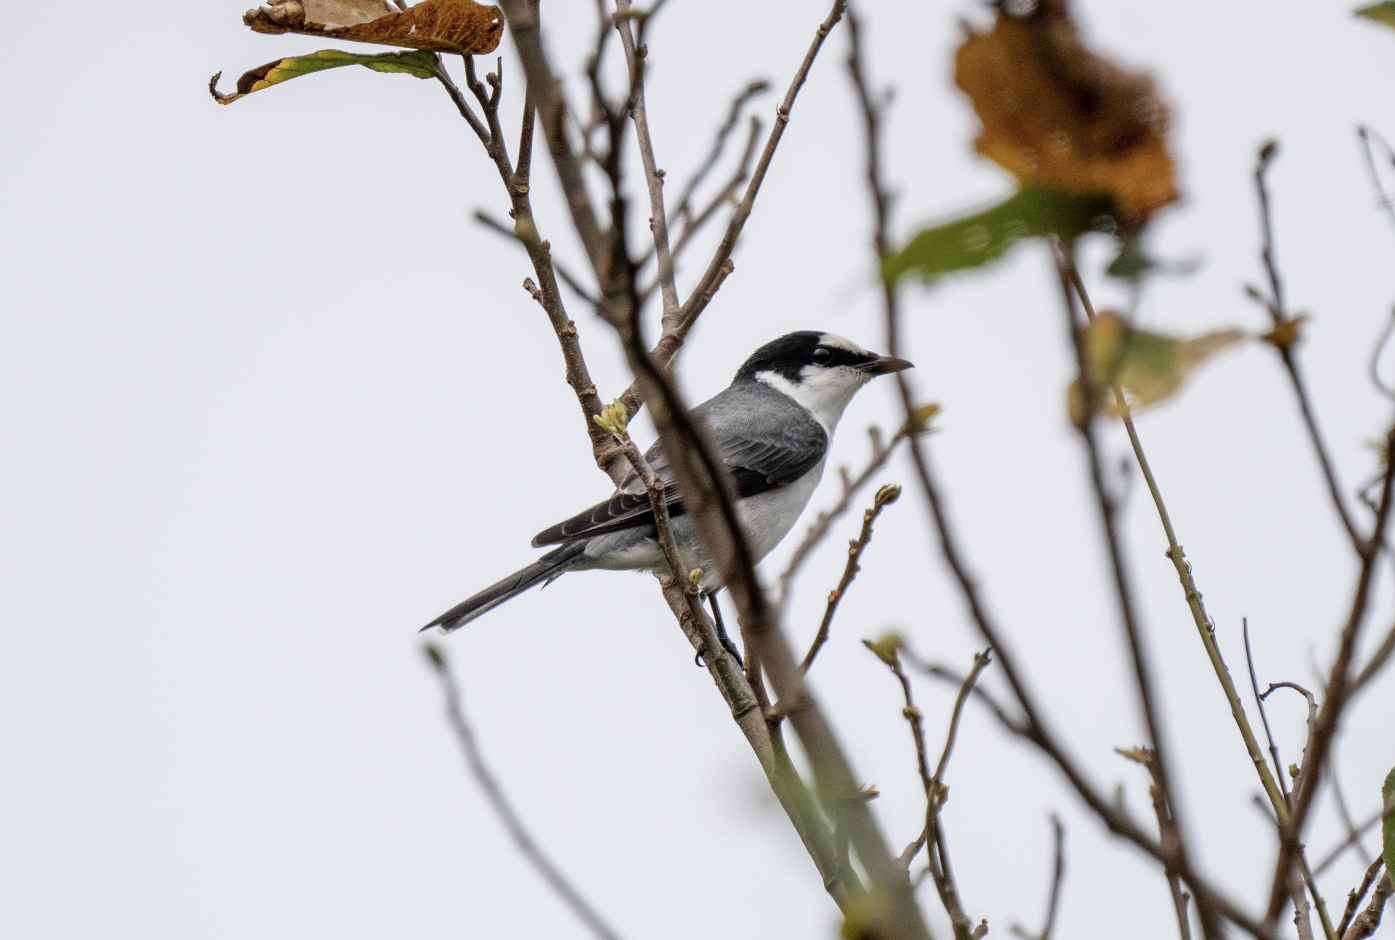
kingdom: Animalia
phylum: Chordata
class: Aves
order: Passeriformes
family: Campephagidae
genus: Pericrocotus
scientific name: Pericrocotus divaricatus
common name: Ashy minivet
